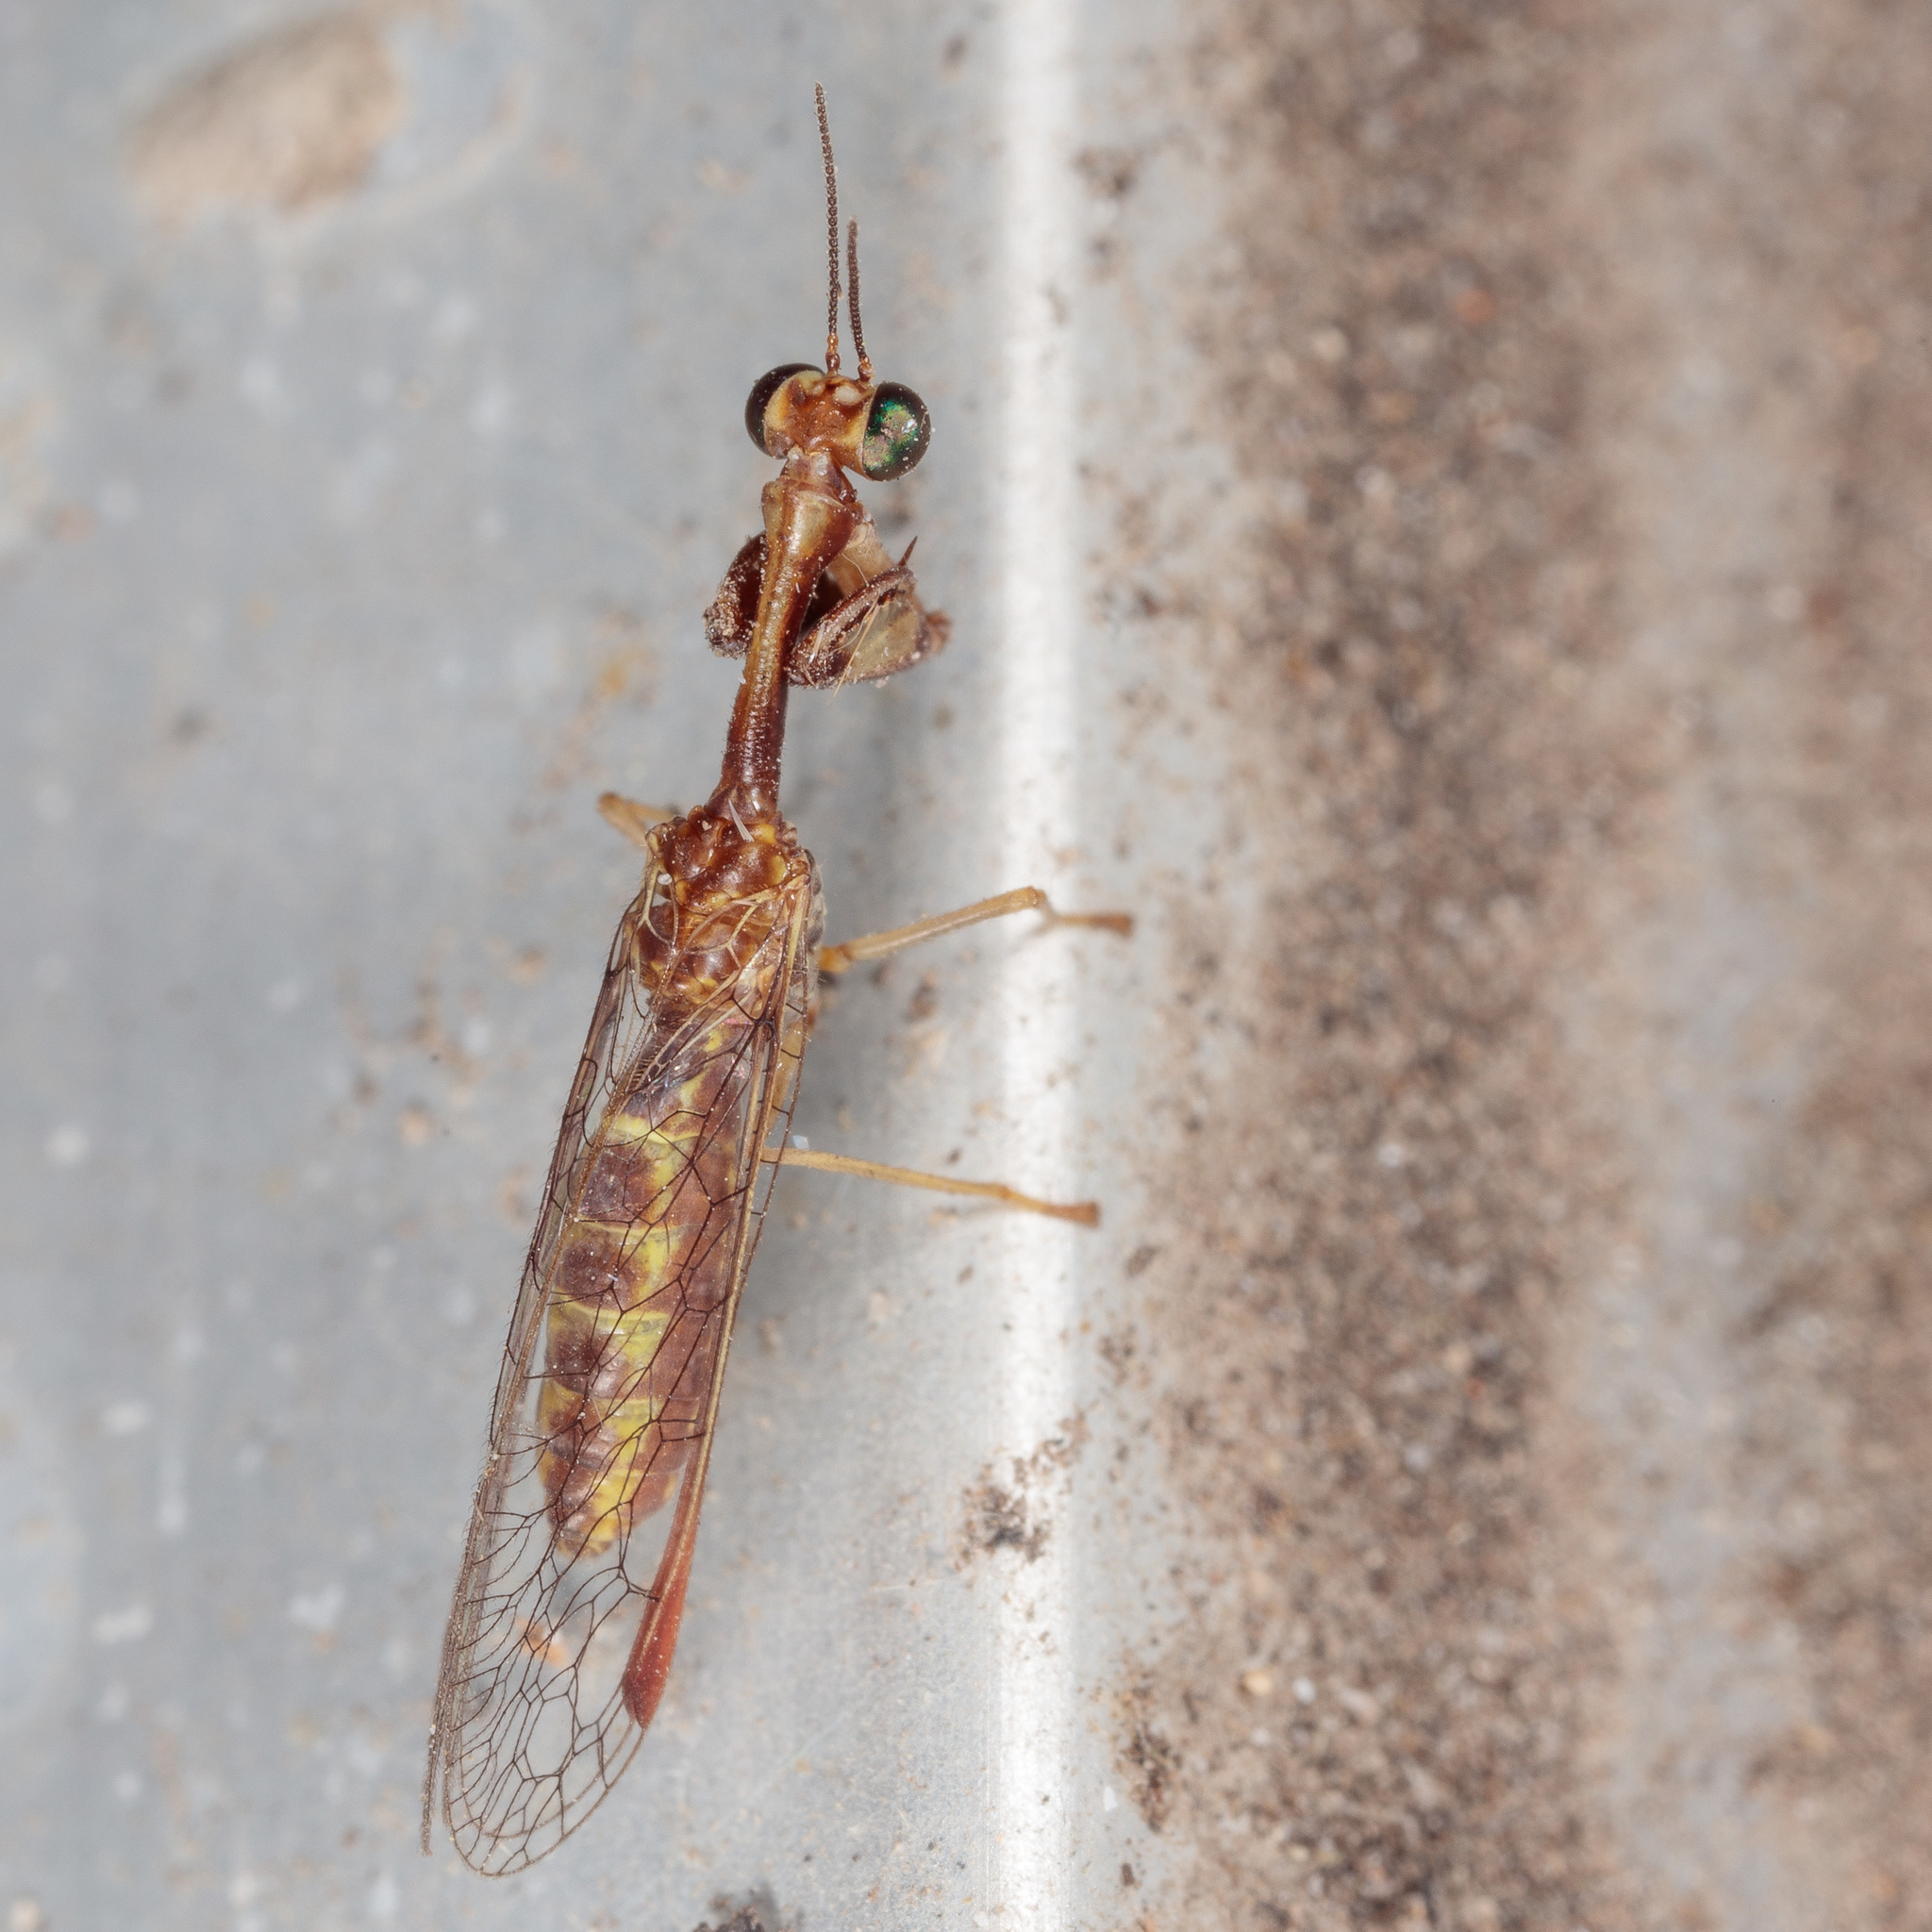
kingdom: Animalia
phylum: Arthropoda
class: Insecta
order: Neuroptera
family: Mantispidae
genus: Leptomantispa
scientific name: Leptomantispa pulchella
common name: Stevens's mantidfly
